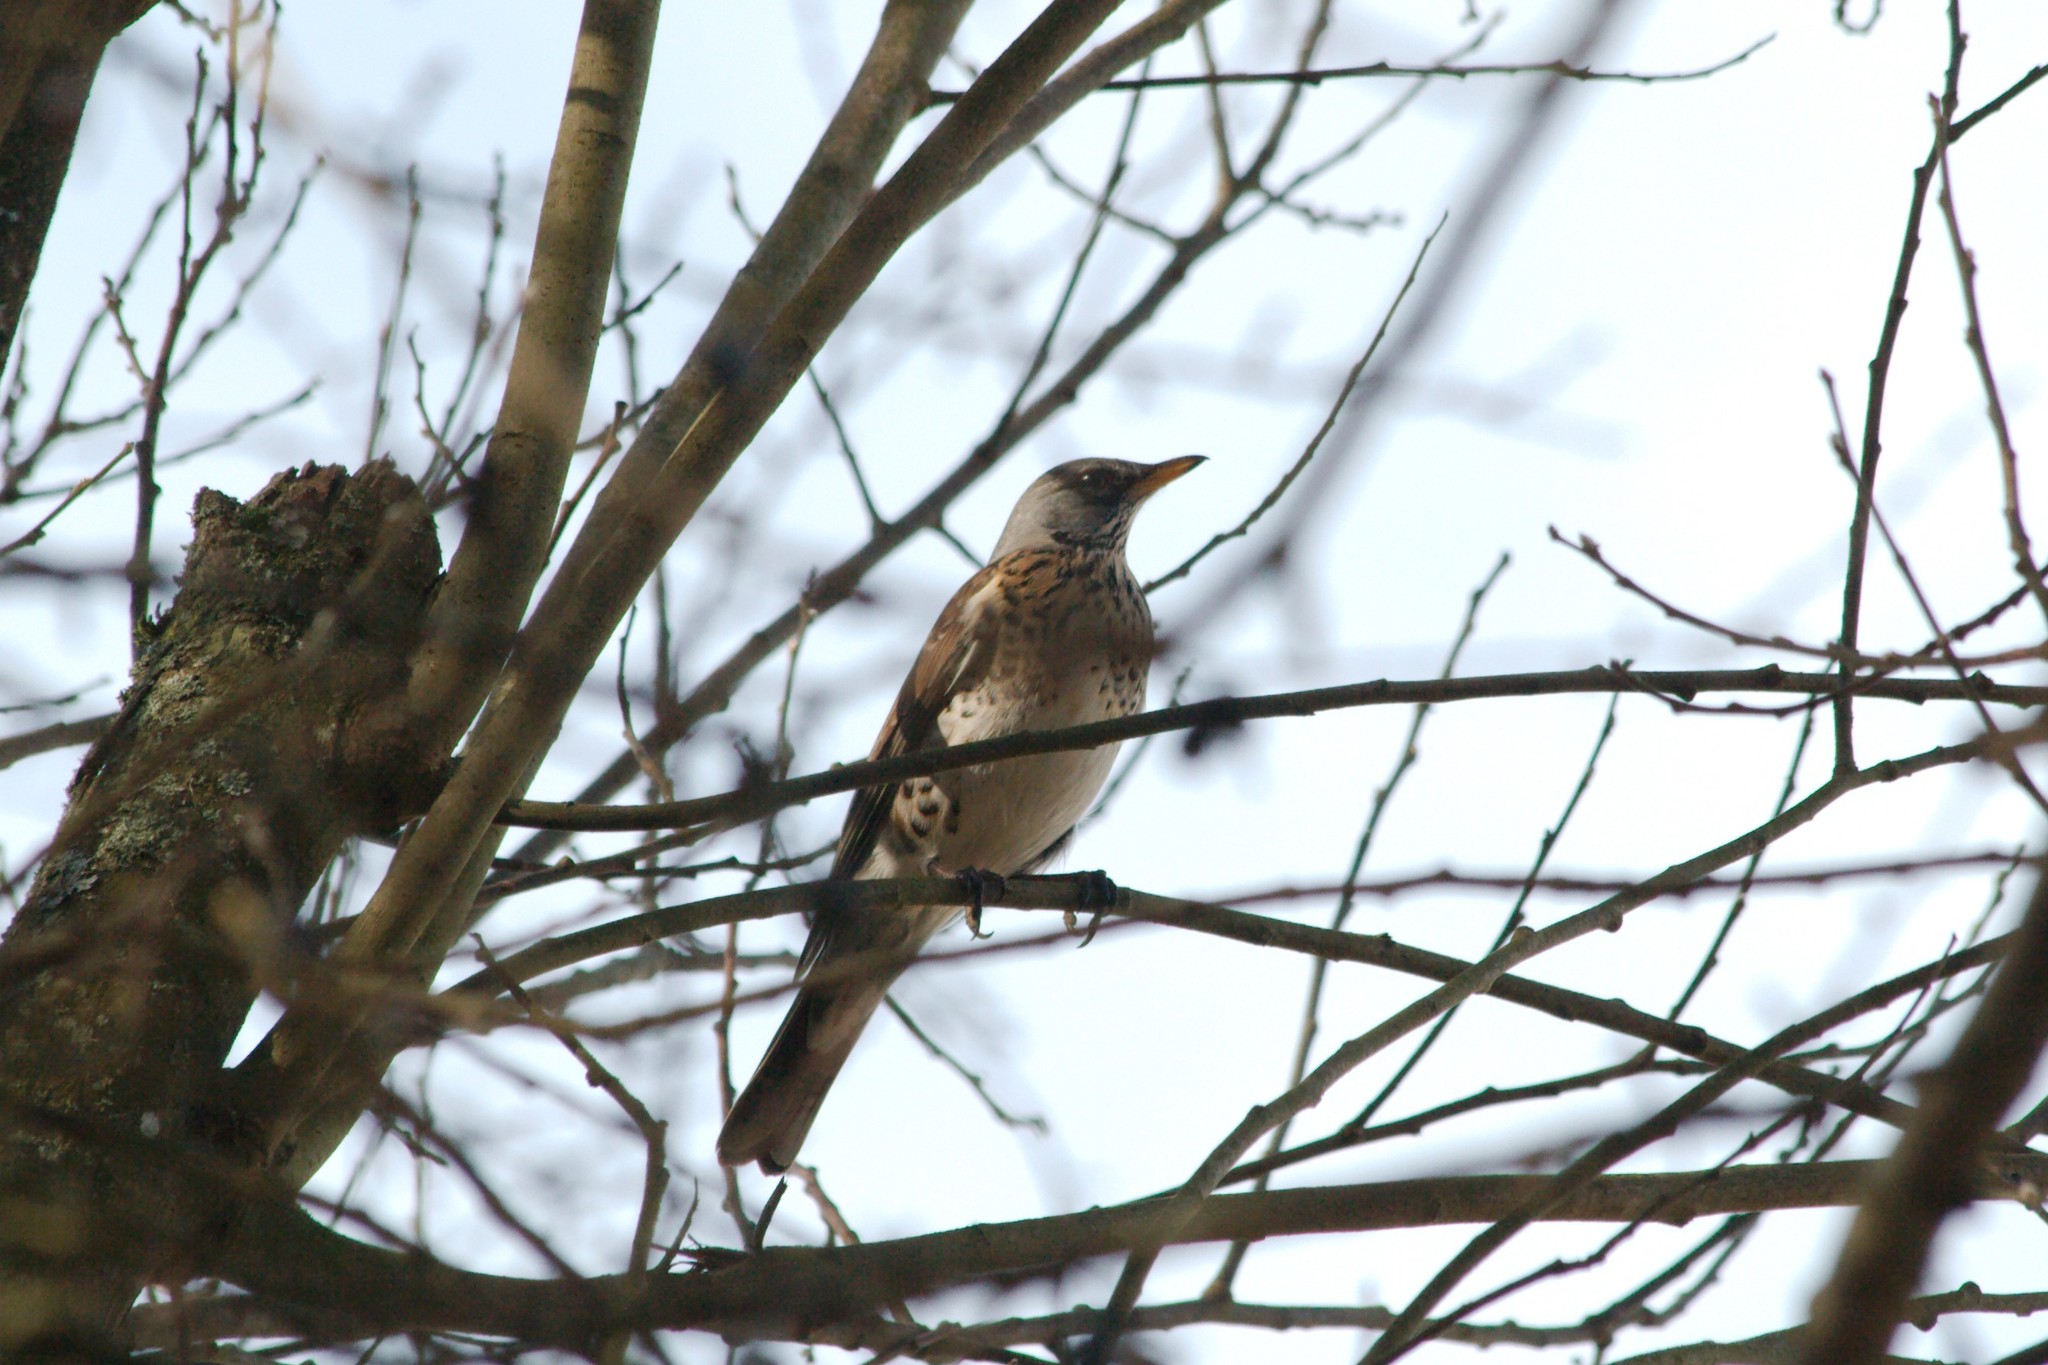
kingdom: Animalia
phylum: Chordata
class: Aves
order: Passeriformes
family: Turdidae
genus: Turdus
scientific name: Turdus pilaris
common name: Fieldfare
